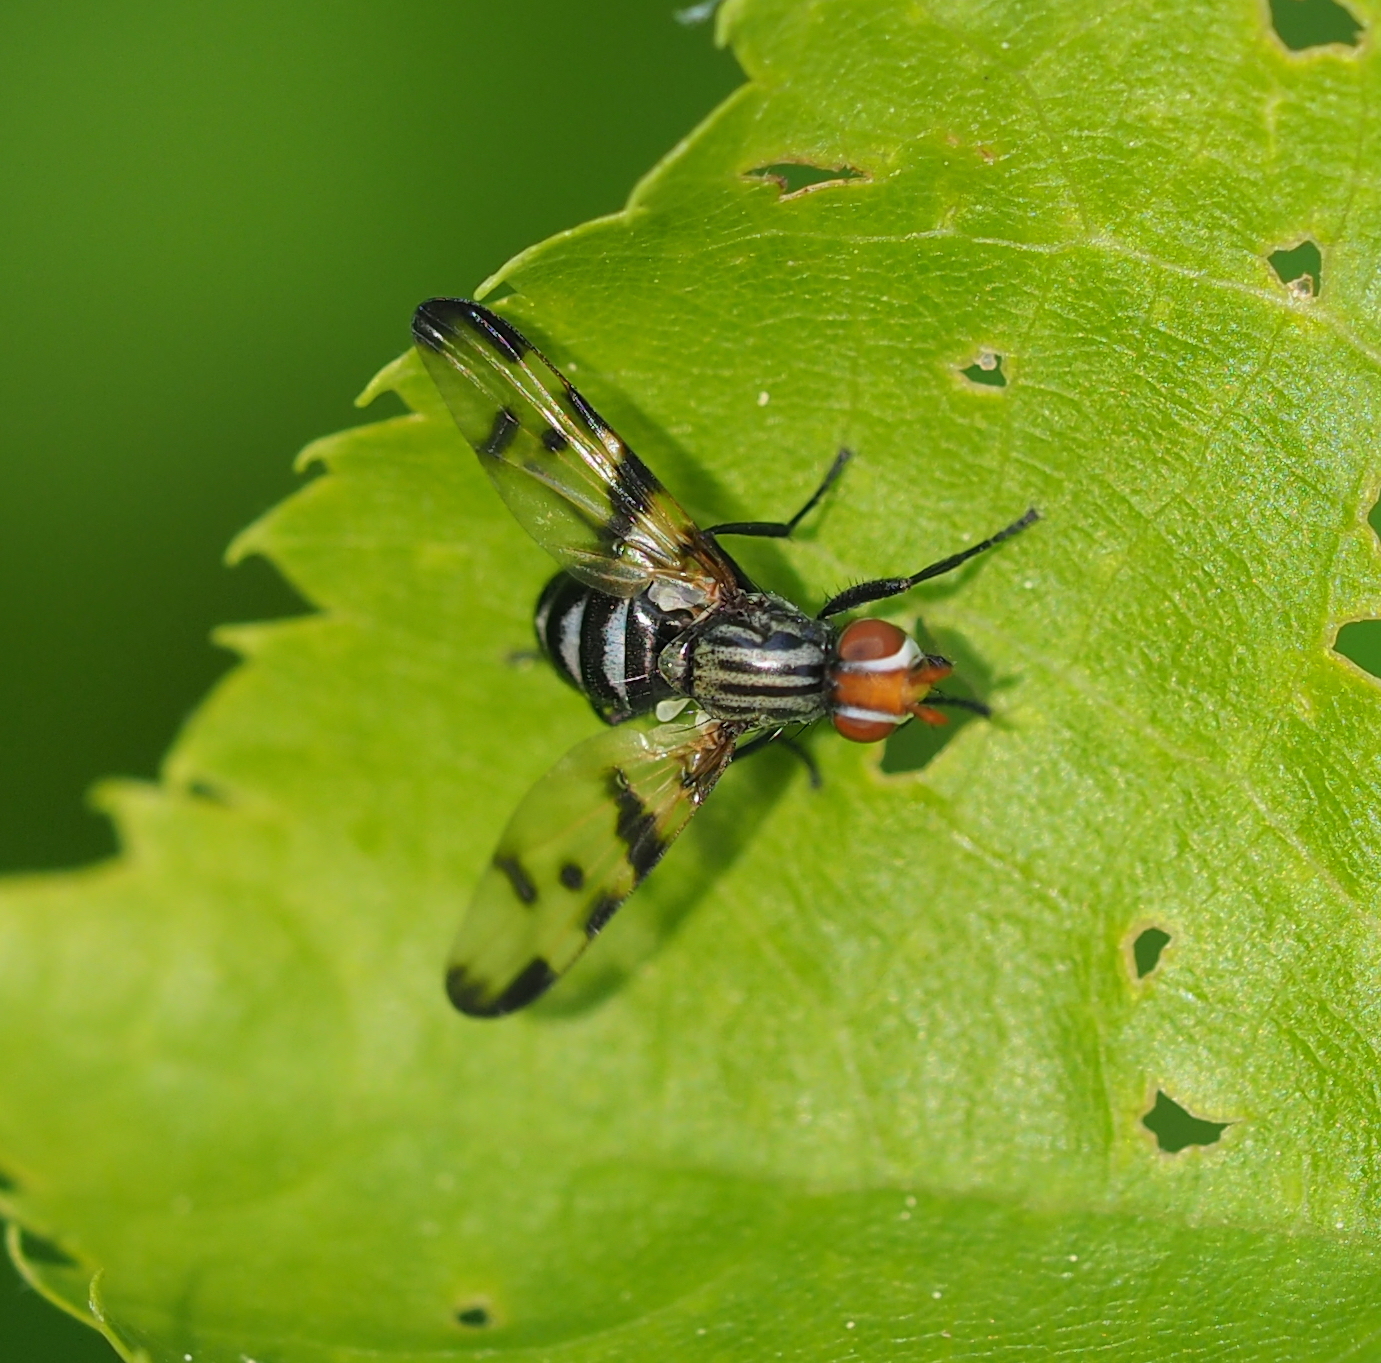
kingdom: Animalia
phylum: Arthropoda
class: Insecta
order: Diptera
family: Ulidiidae
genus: Otites
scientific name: Otites formosa
